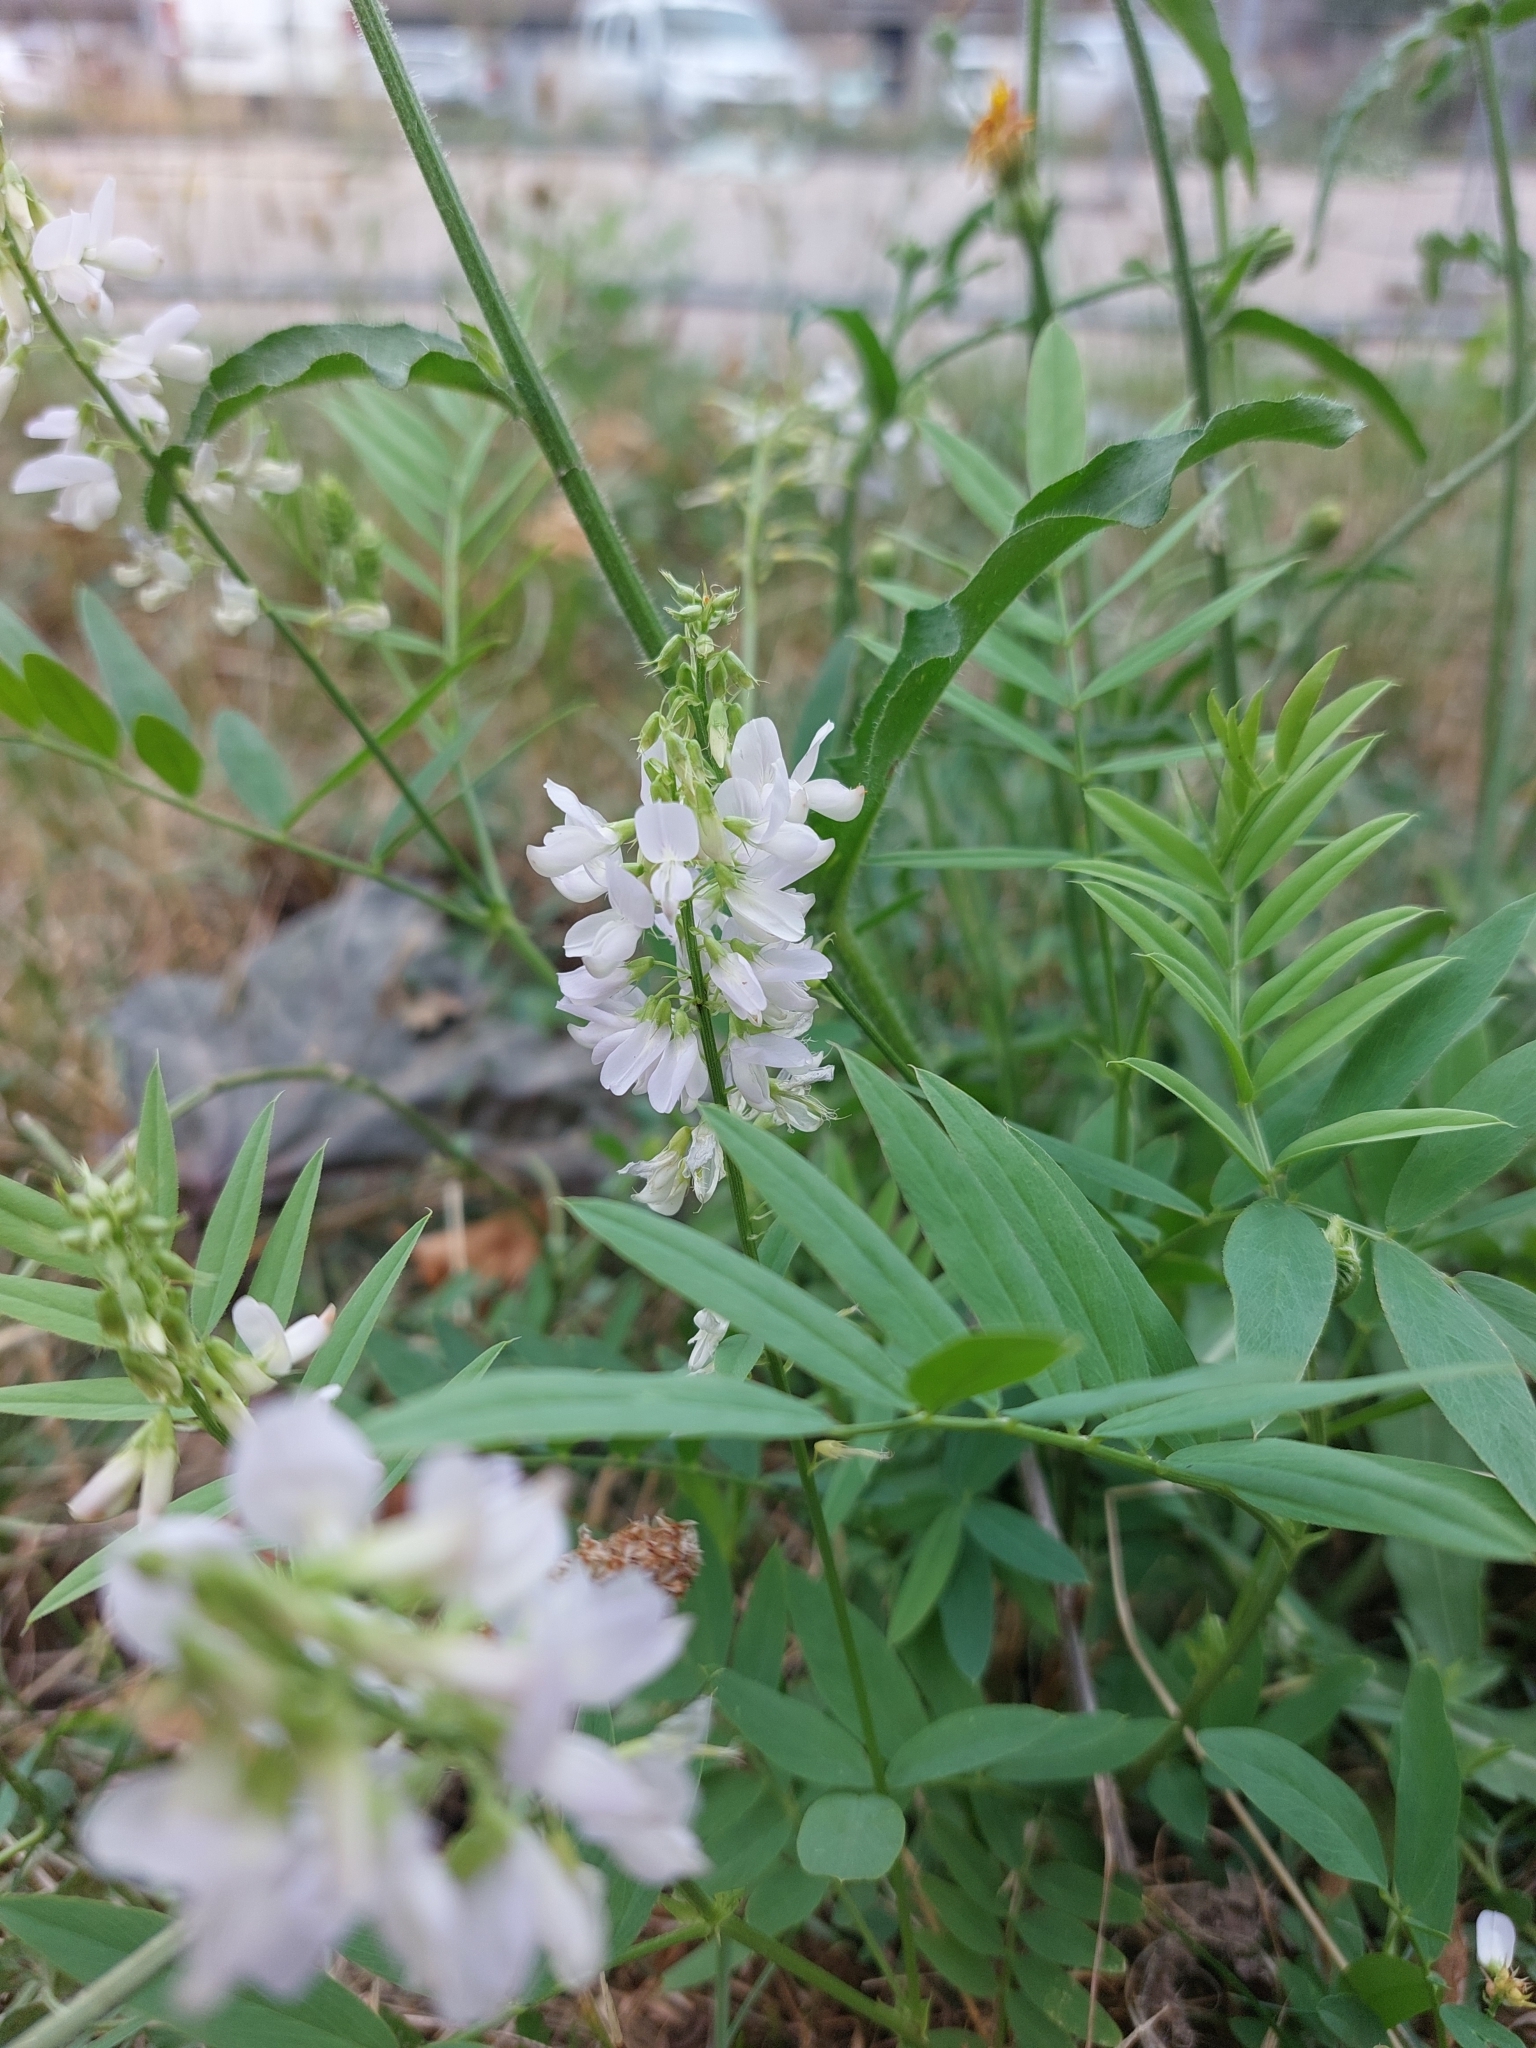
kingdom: Plantae
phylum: Tracheophyta
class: Magnoliopsida
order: Fabales
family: Fabaceae
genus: Galega
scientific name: Galega officinalis
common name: Goat's-rue
